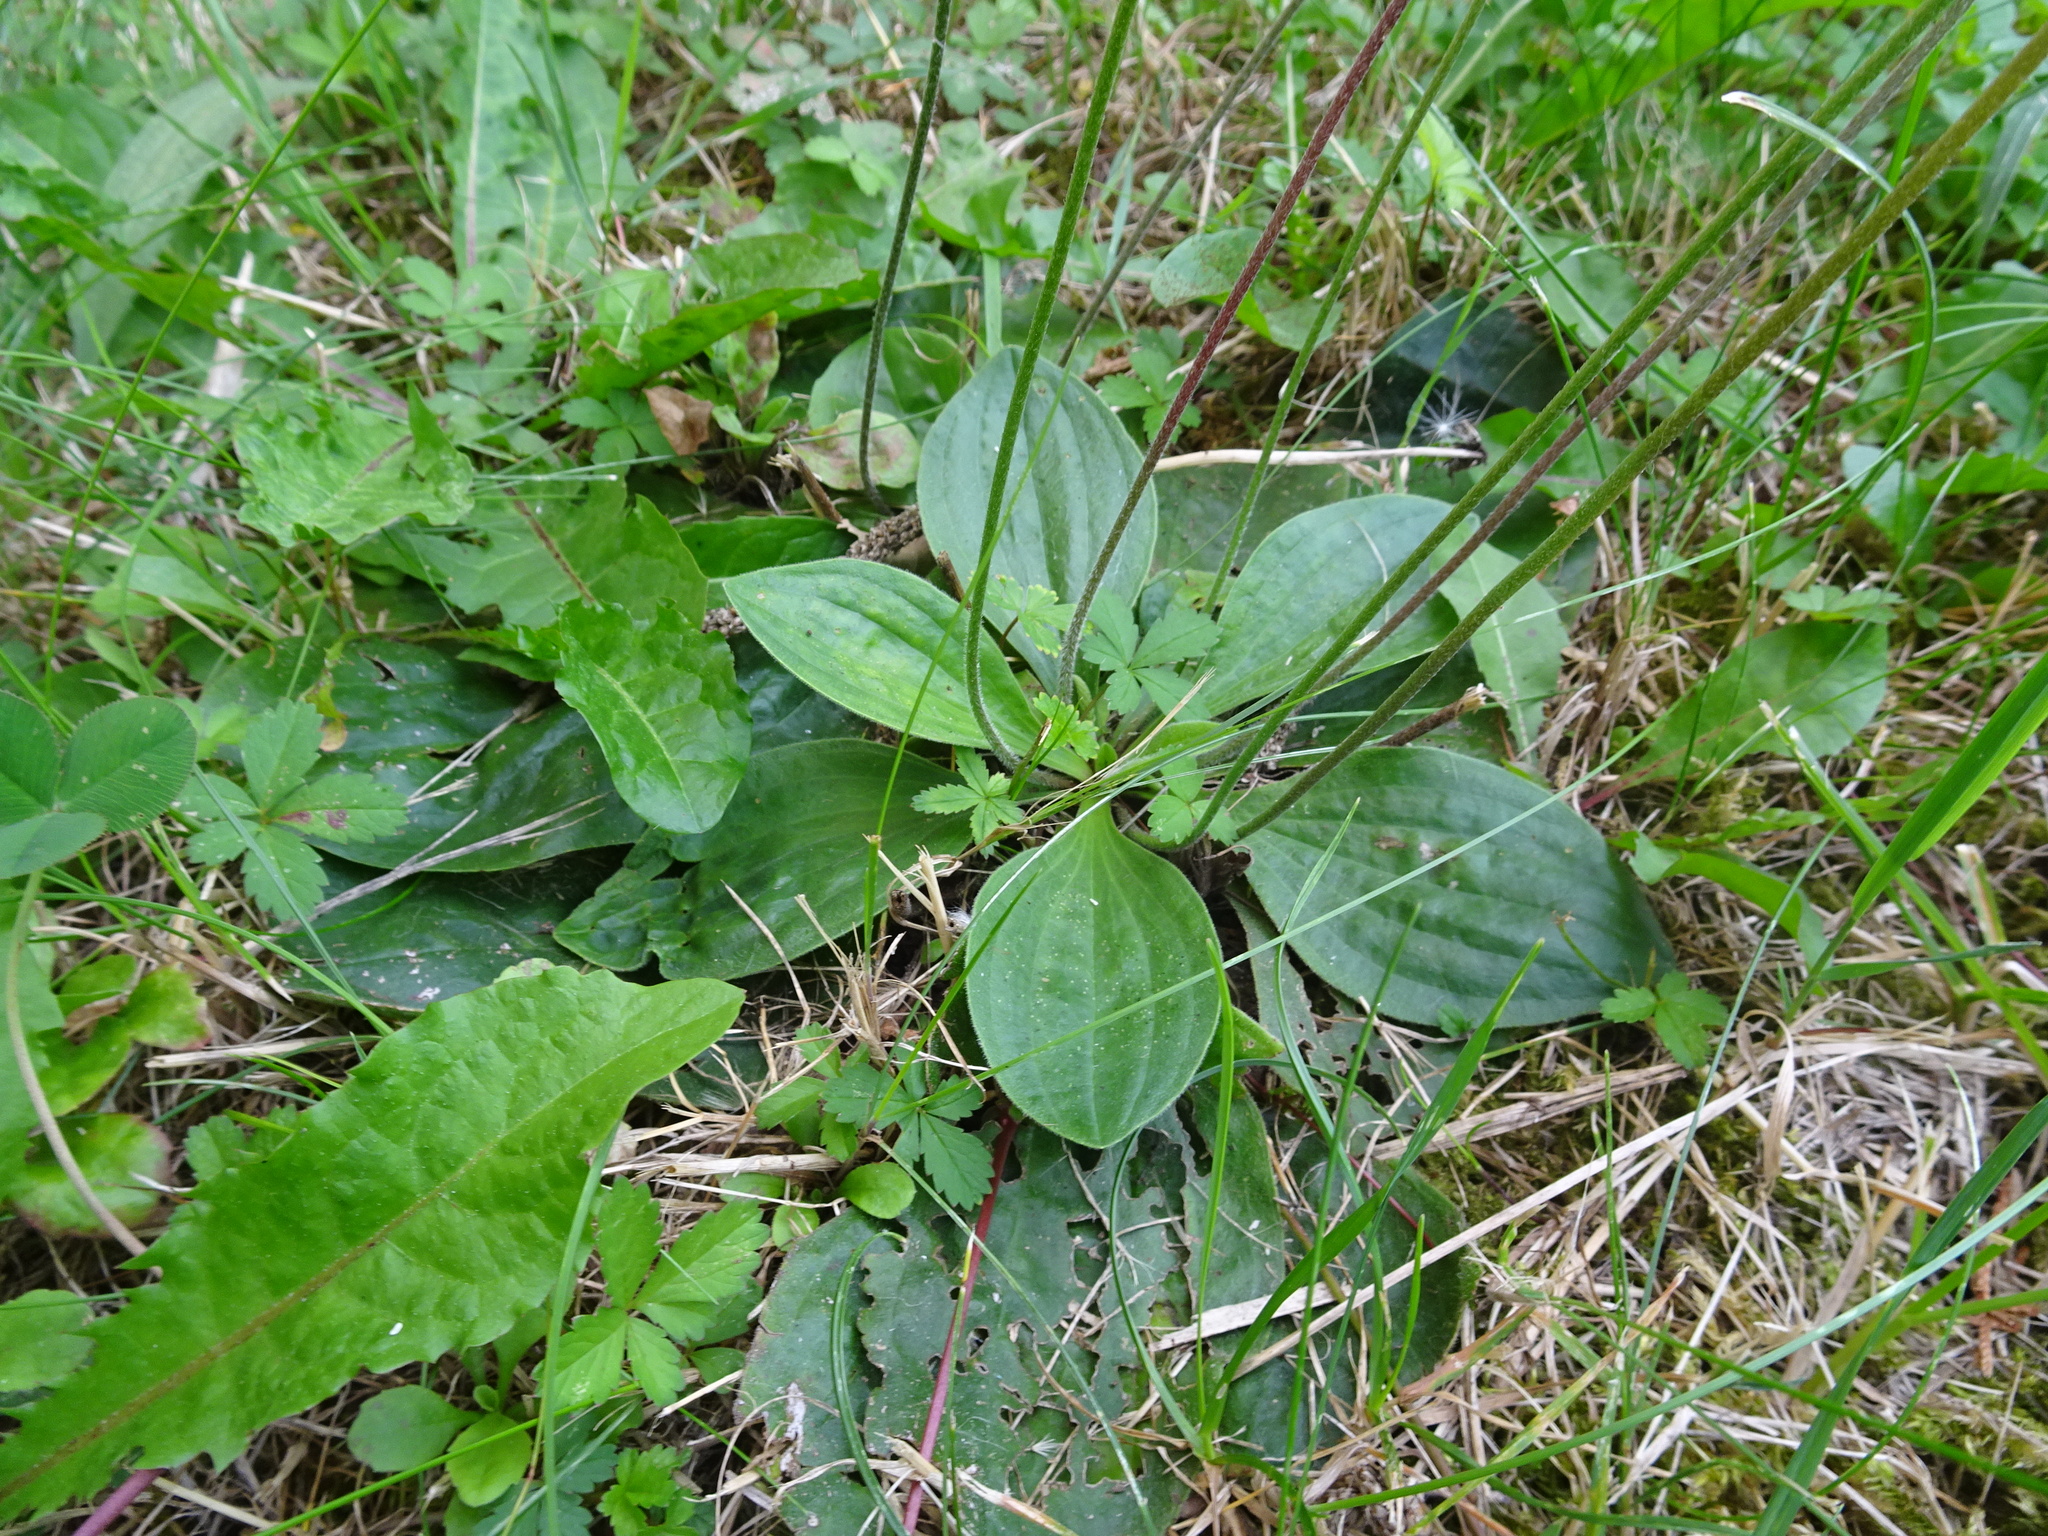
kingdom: Plantae
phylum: Tracheophyta
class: Magnoliopsida
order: Lamiales
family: Plantaginaceae
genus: Plantago
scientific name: Plantago media
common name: Hoary plantain
